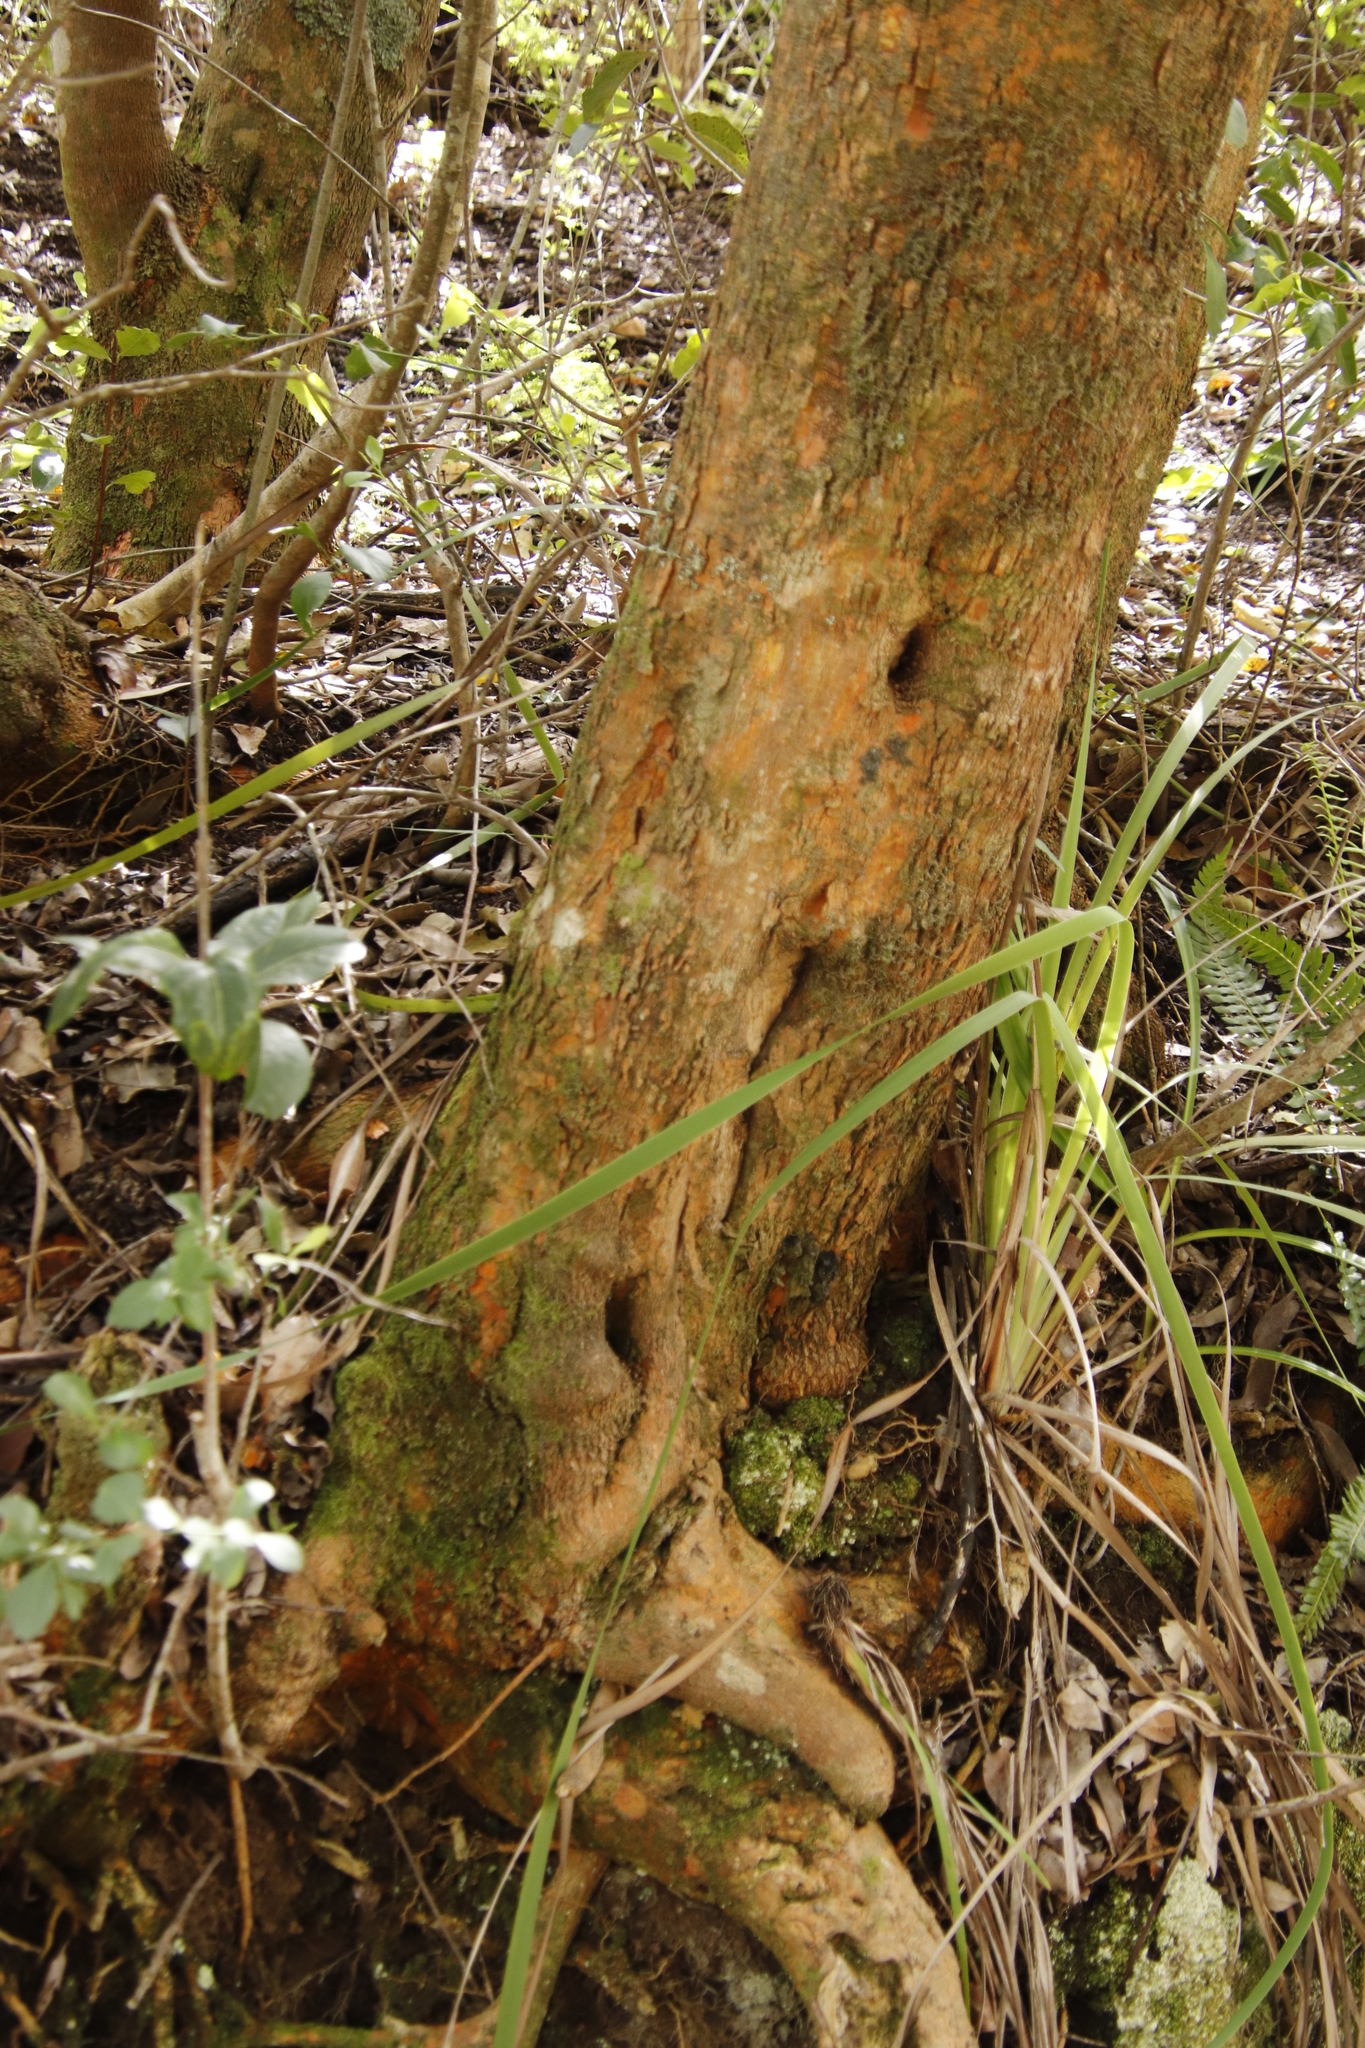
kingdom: Plantae
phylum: Tracheophyta
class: Magnoliopsida
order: Celastrales
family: Celastraceae
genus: Cassine
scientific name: Cassine peragua
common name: Cape saffron
